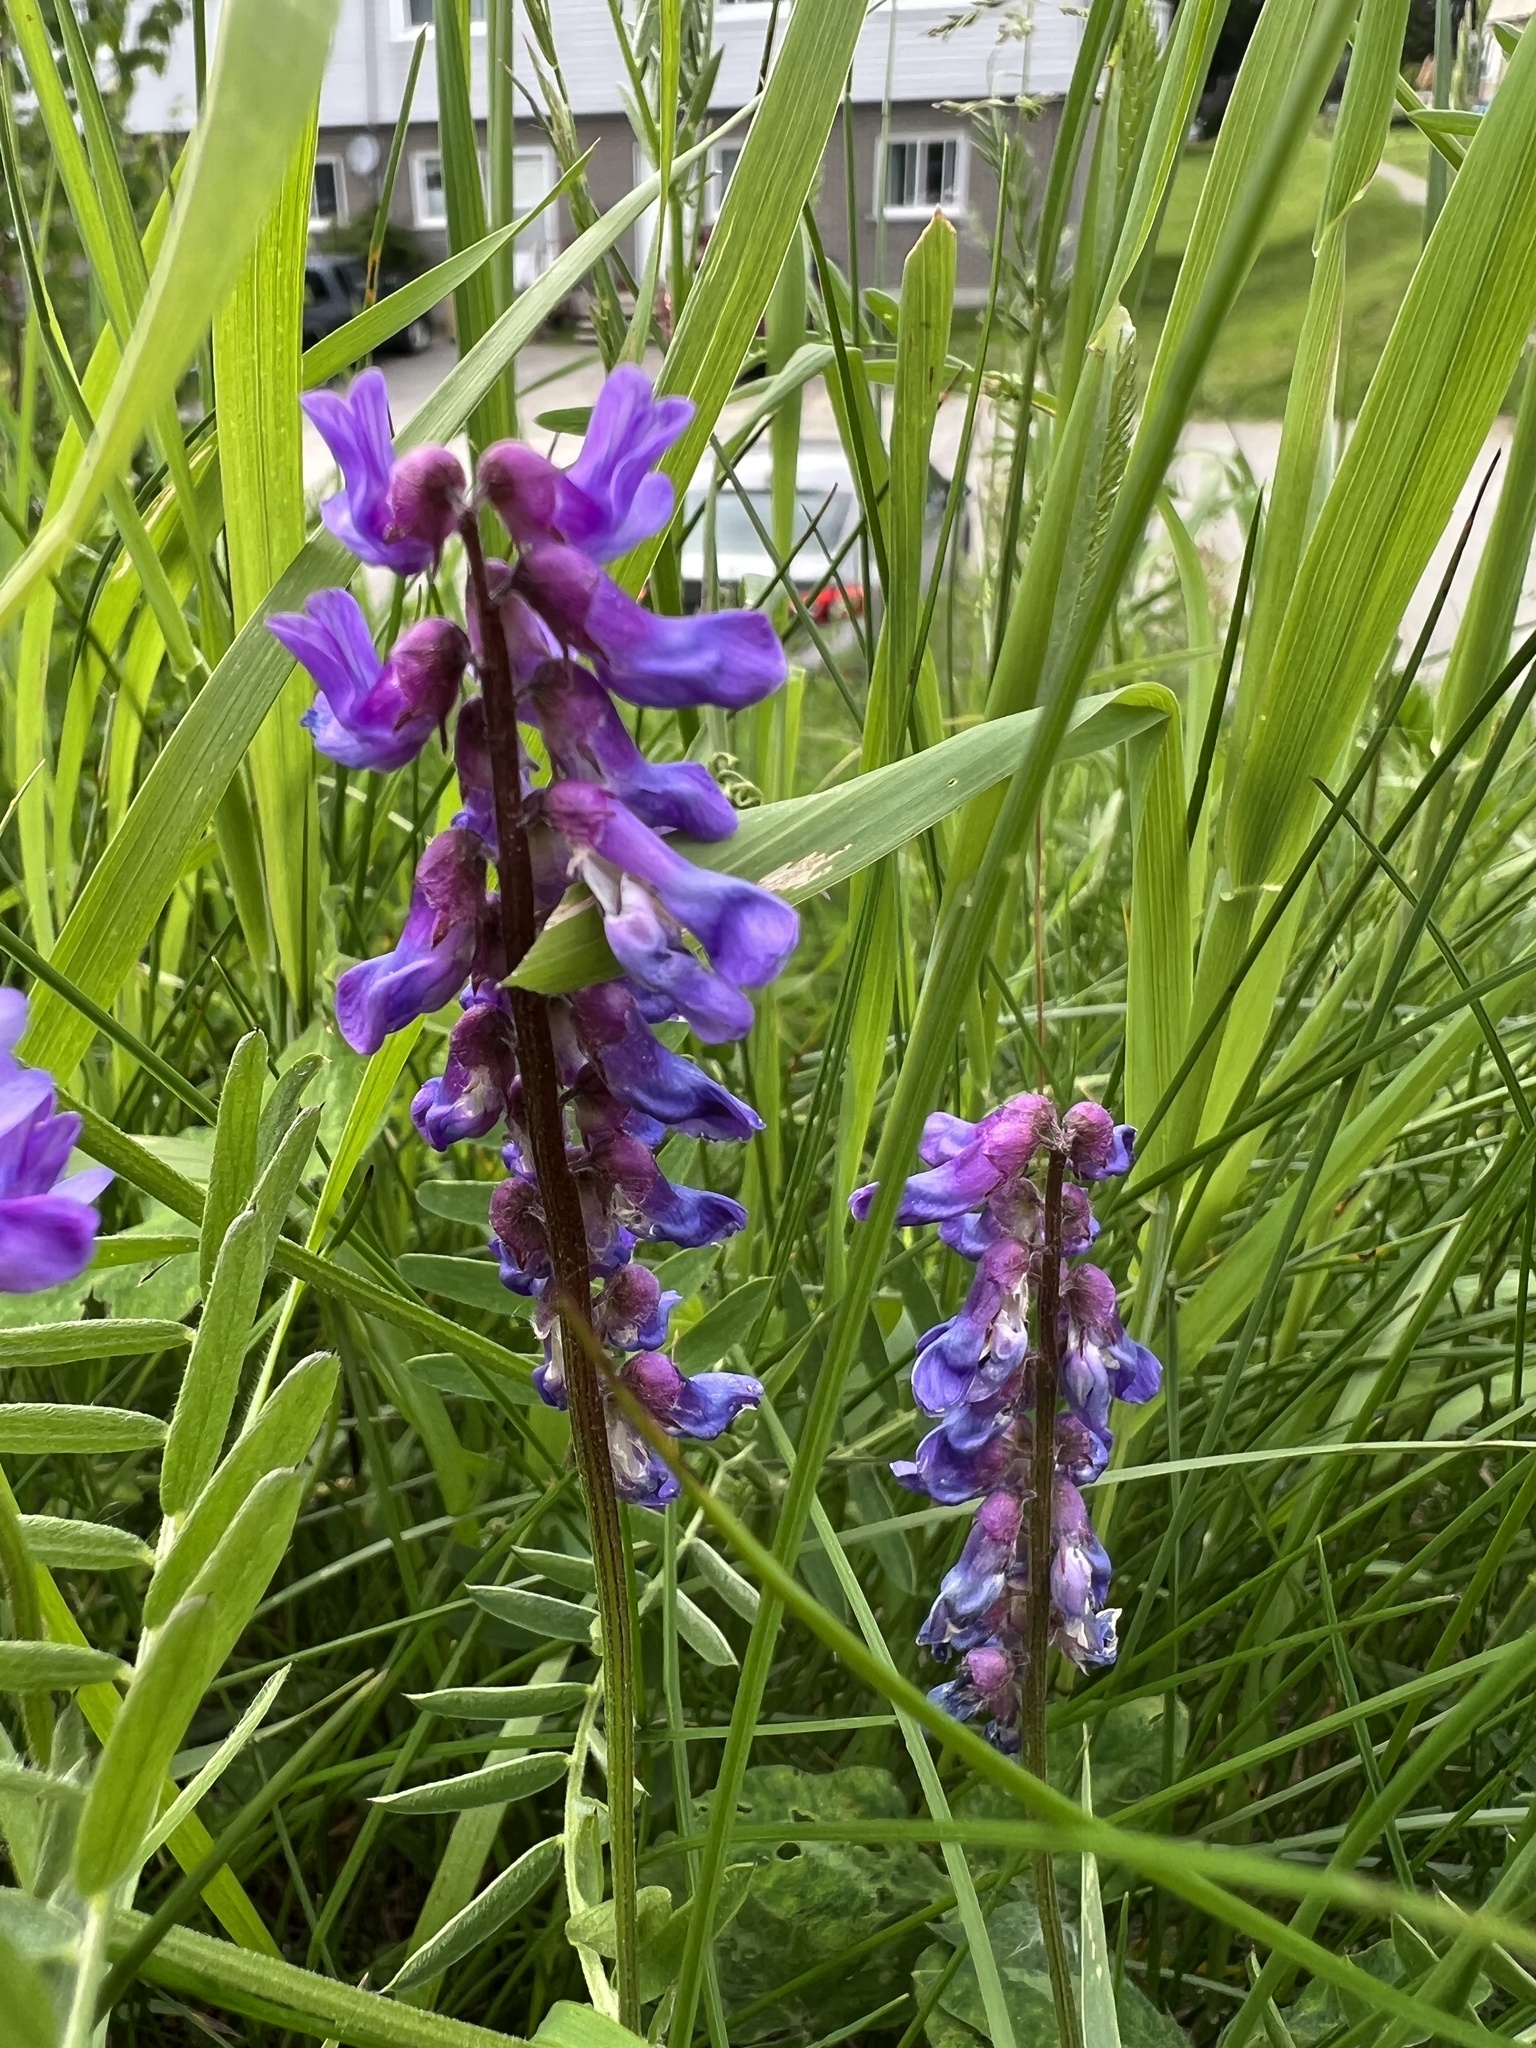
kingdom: Plantae
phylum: Tracheophyta
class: Magnoliopsida
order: Fabales
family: Fabaceae
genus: Vicia
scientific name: Vicia cracca
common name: Bird vetch
